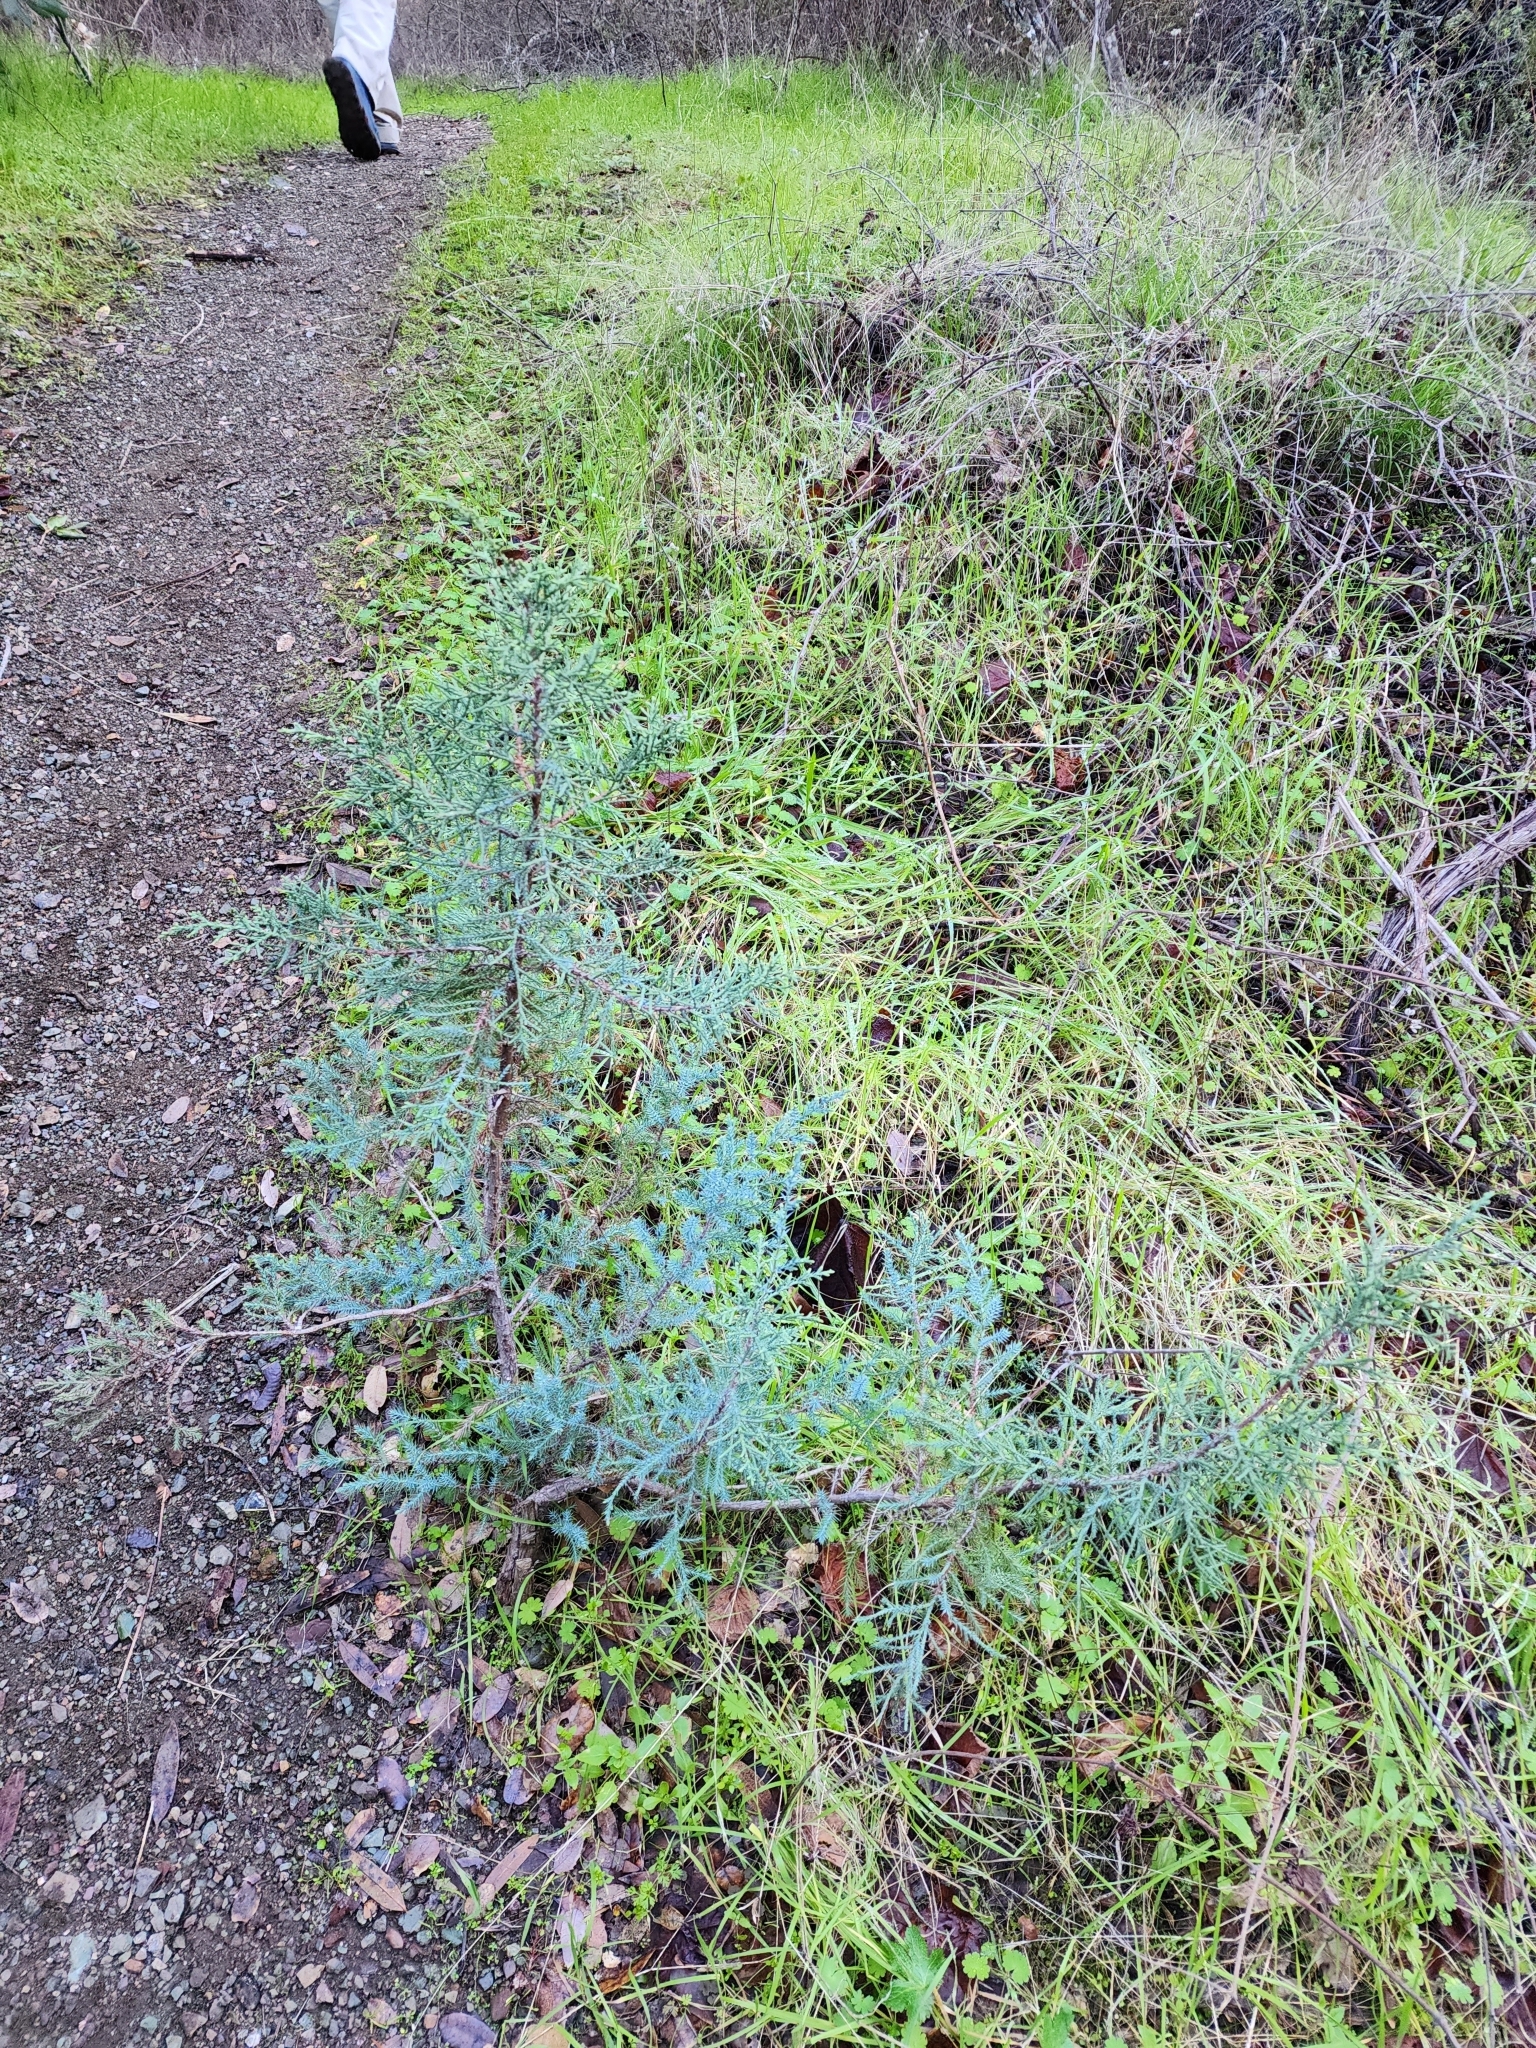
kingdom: Plantae
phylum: Tracheophyta
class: Pinopsida
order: Pinales
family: Cupressaceae
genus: Juniperus
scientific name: Juniperus californica
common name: California juniper
